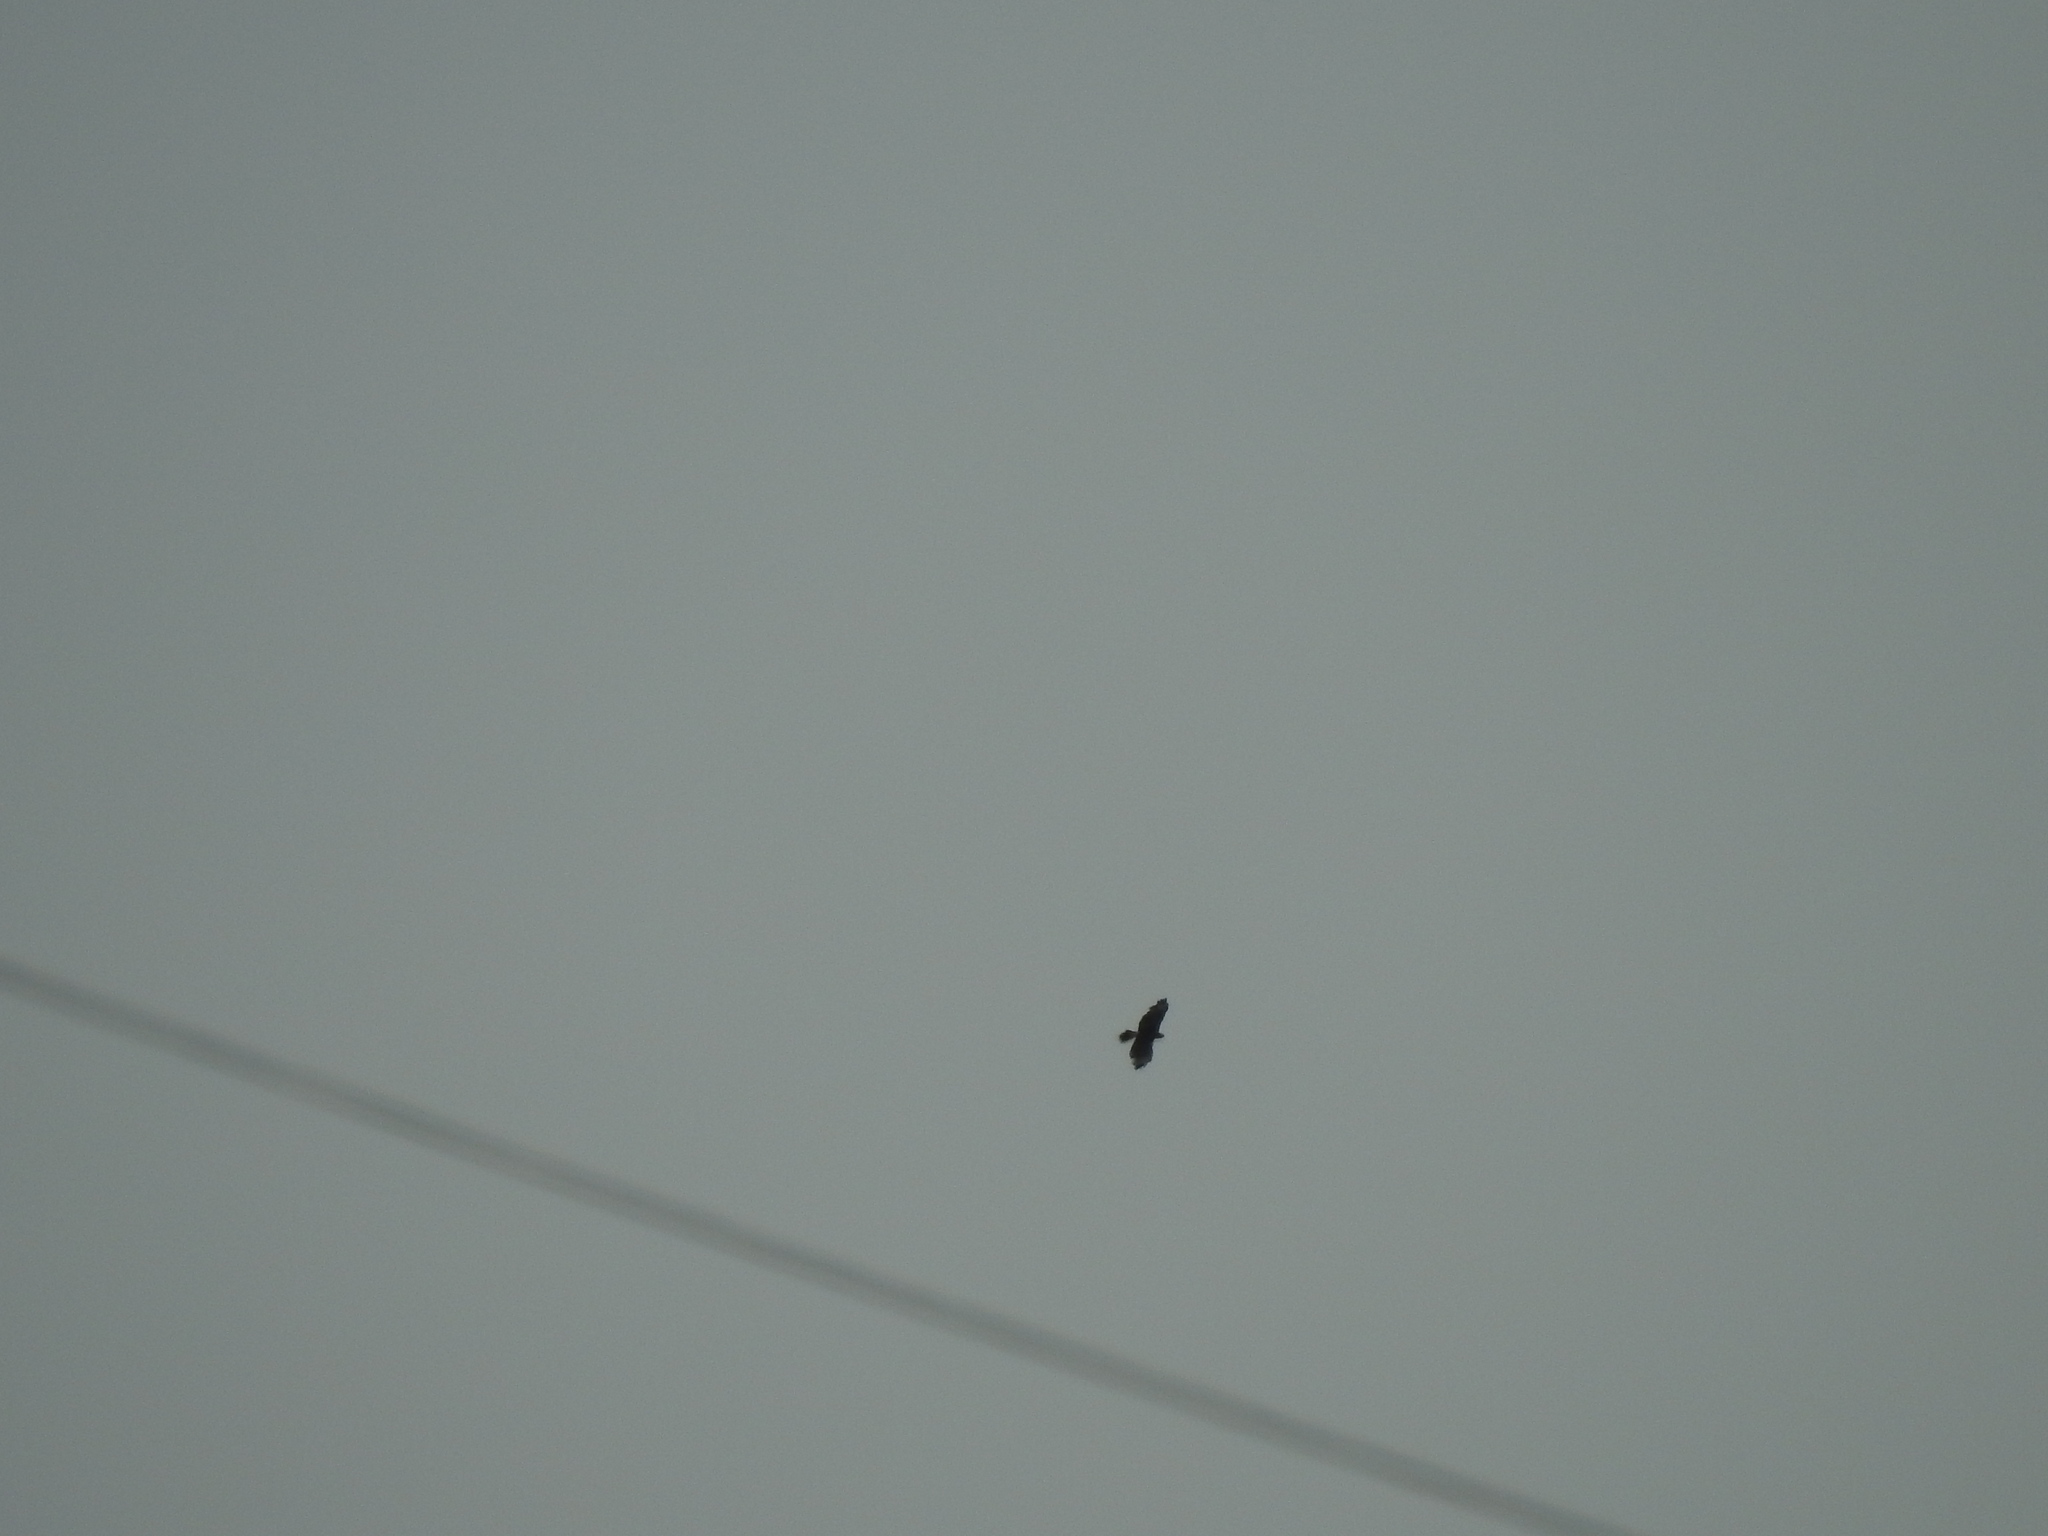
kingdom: Animalia
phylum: Chordata
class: Aves
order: Falconiformes
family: Falconidae
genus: Caracara
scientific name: Caracara plancus
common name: Southern caracara
